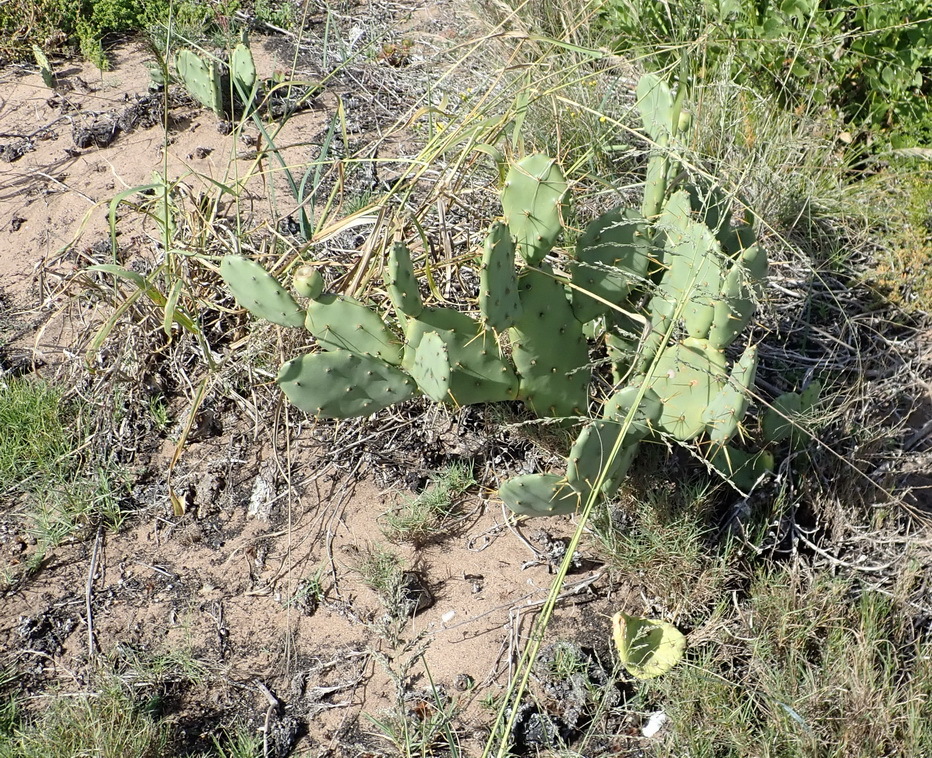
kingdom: Plantae
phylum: Tracheophyta
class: Magnoliopsida
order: Caryophyllales
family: Cactaceae
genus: Opuntia
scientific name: Opuntia stricta
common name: Erect pricklypear
